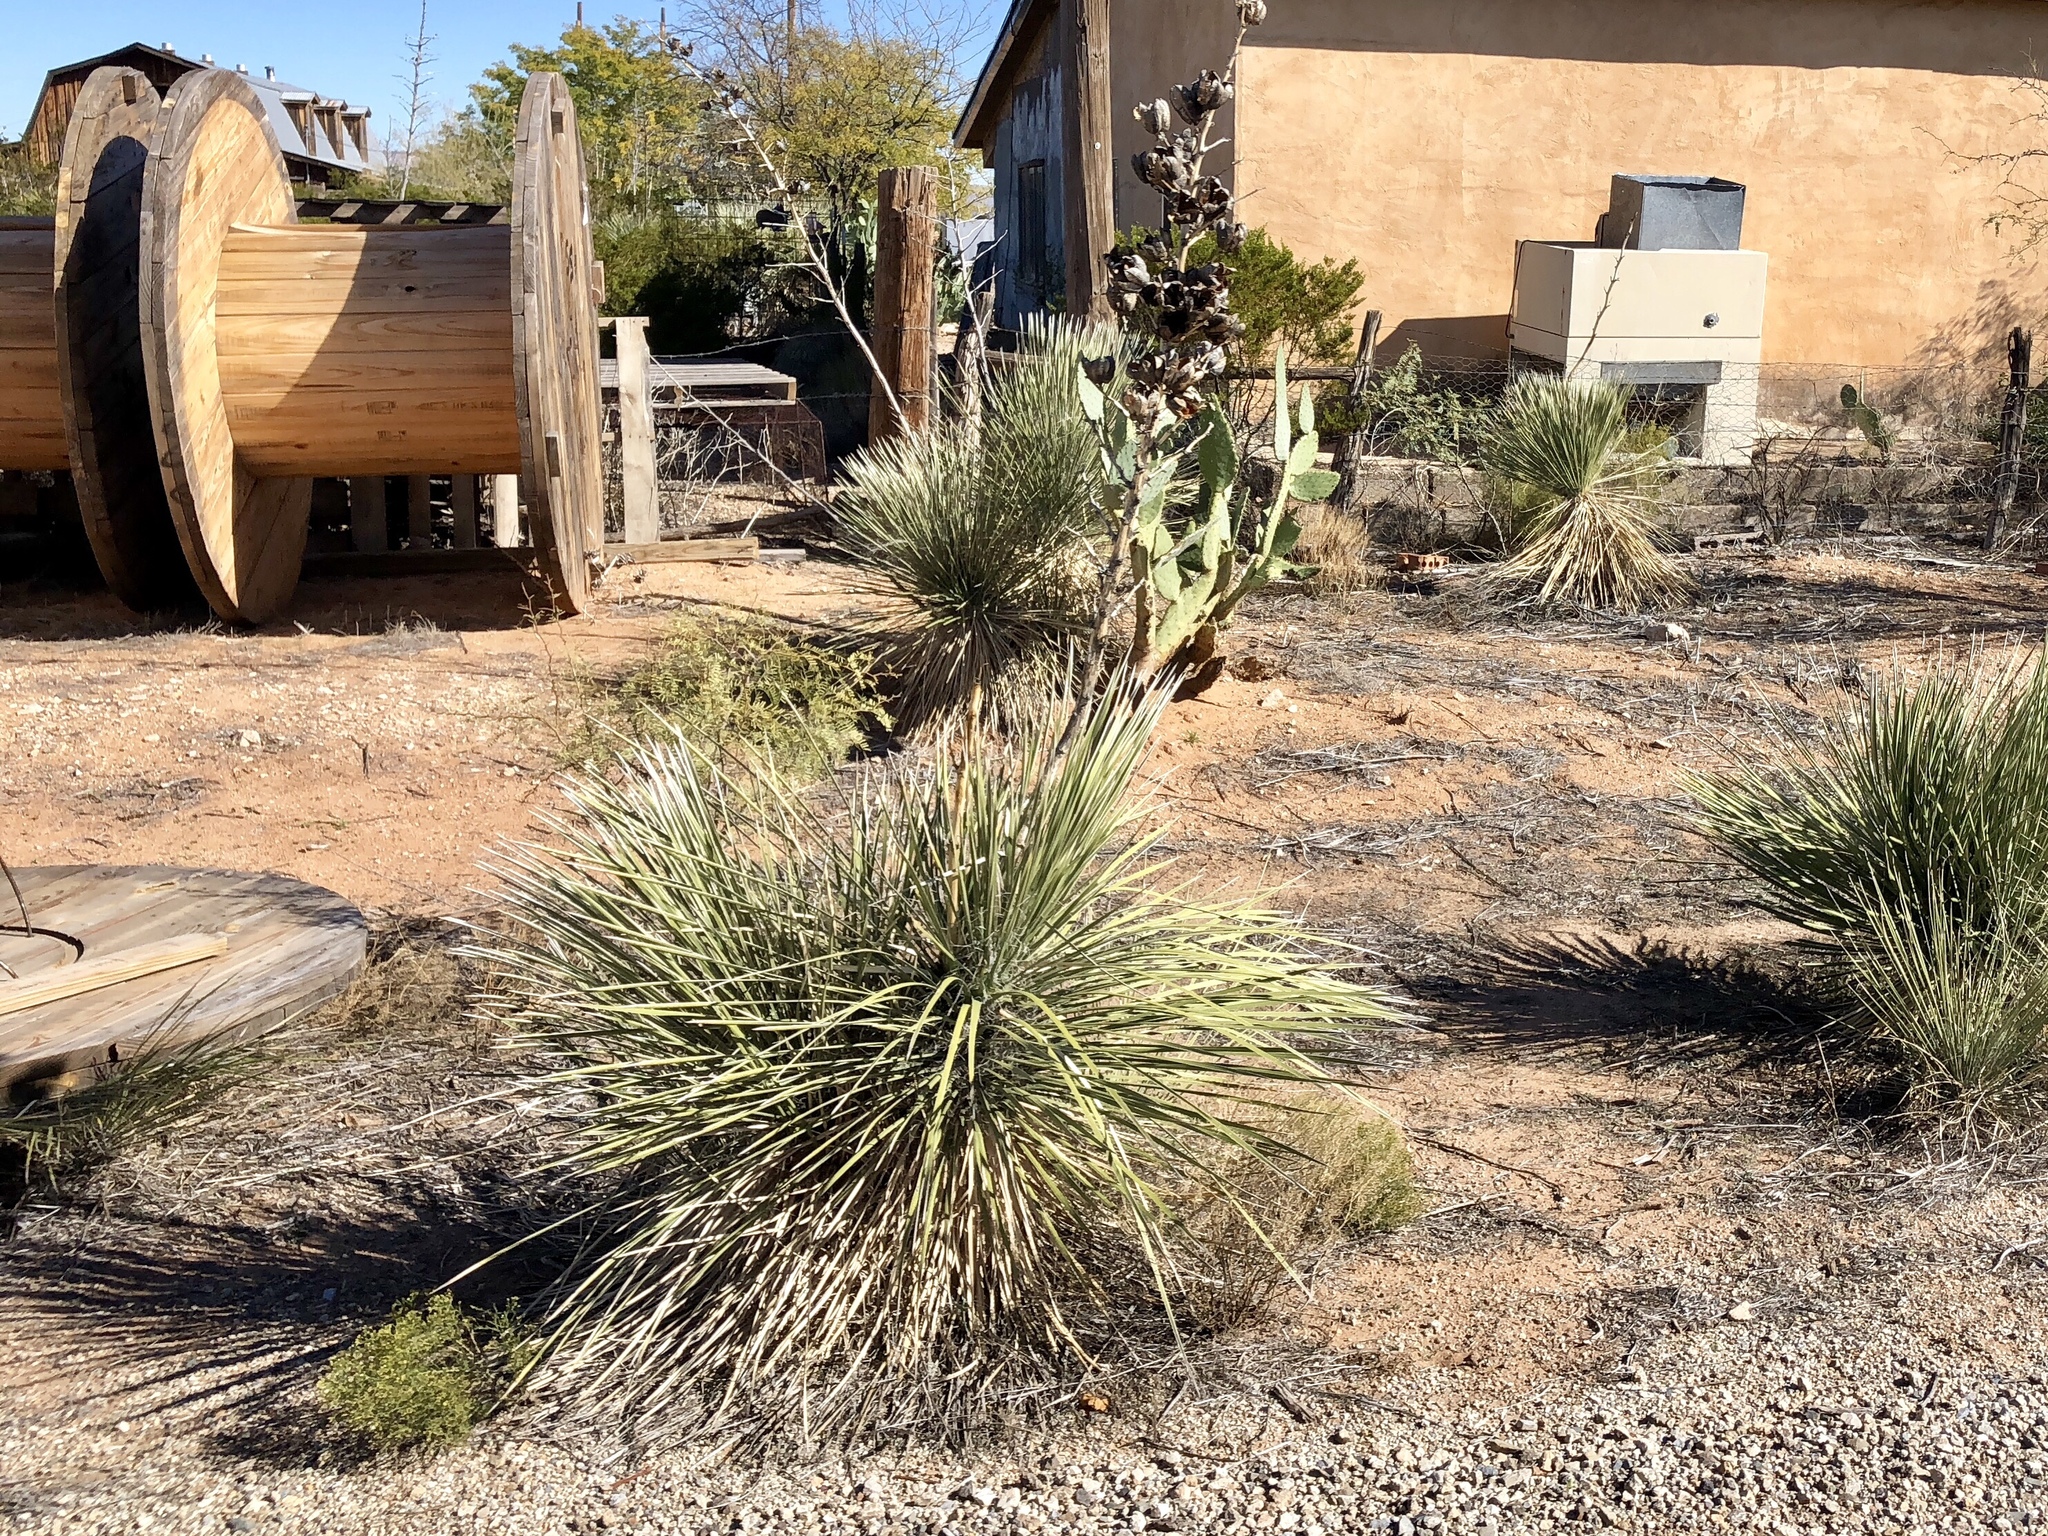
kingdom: Plantae
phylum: Tracheophyta
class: Liliopsida
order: Asparagales
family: Asparagaceae
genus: Yucca
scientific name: Yucca elata
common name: Palmella
